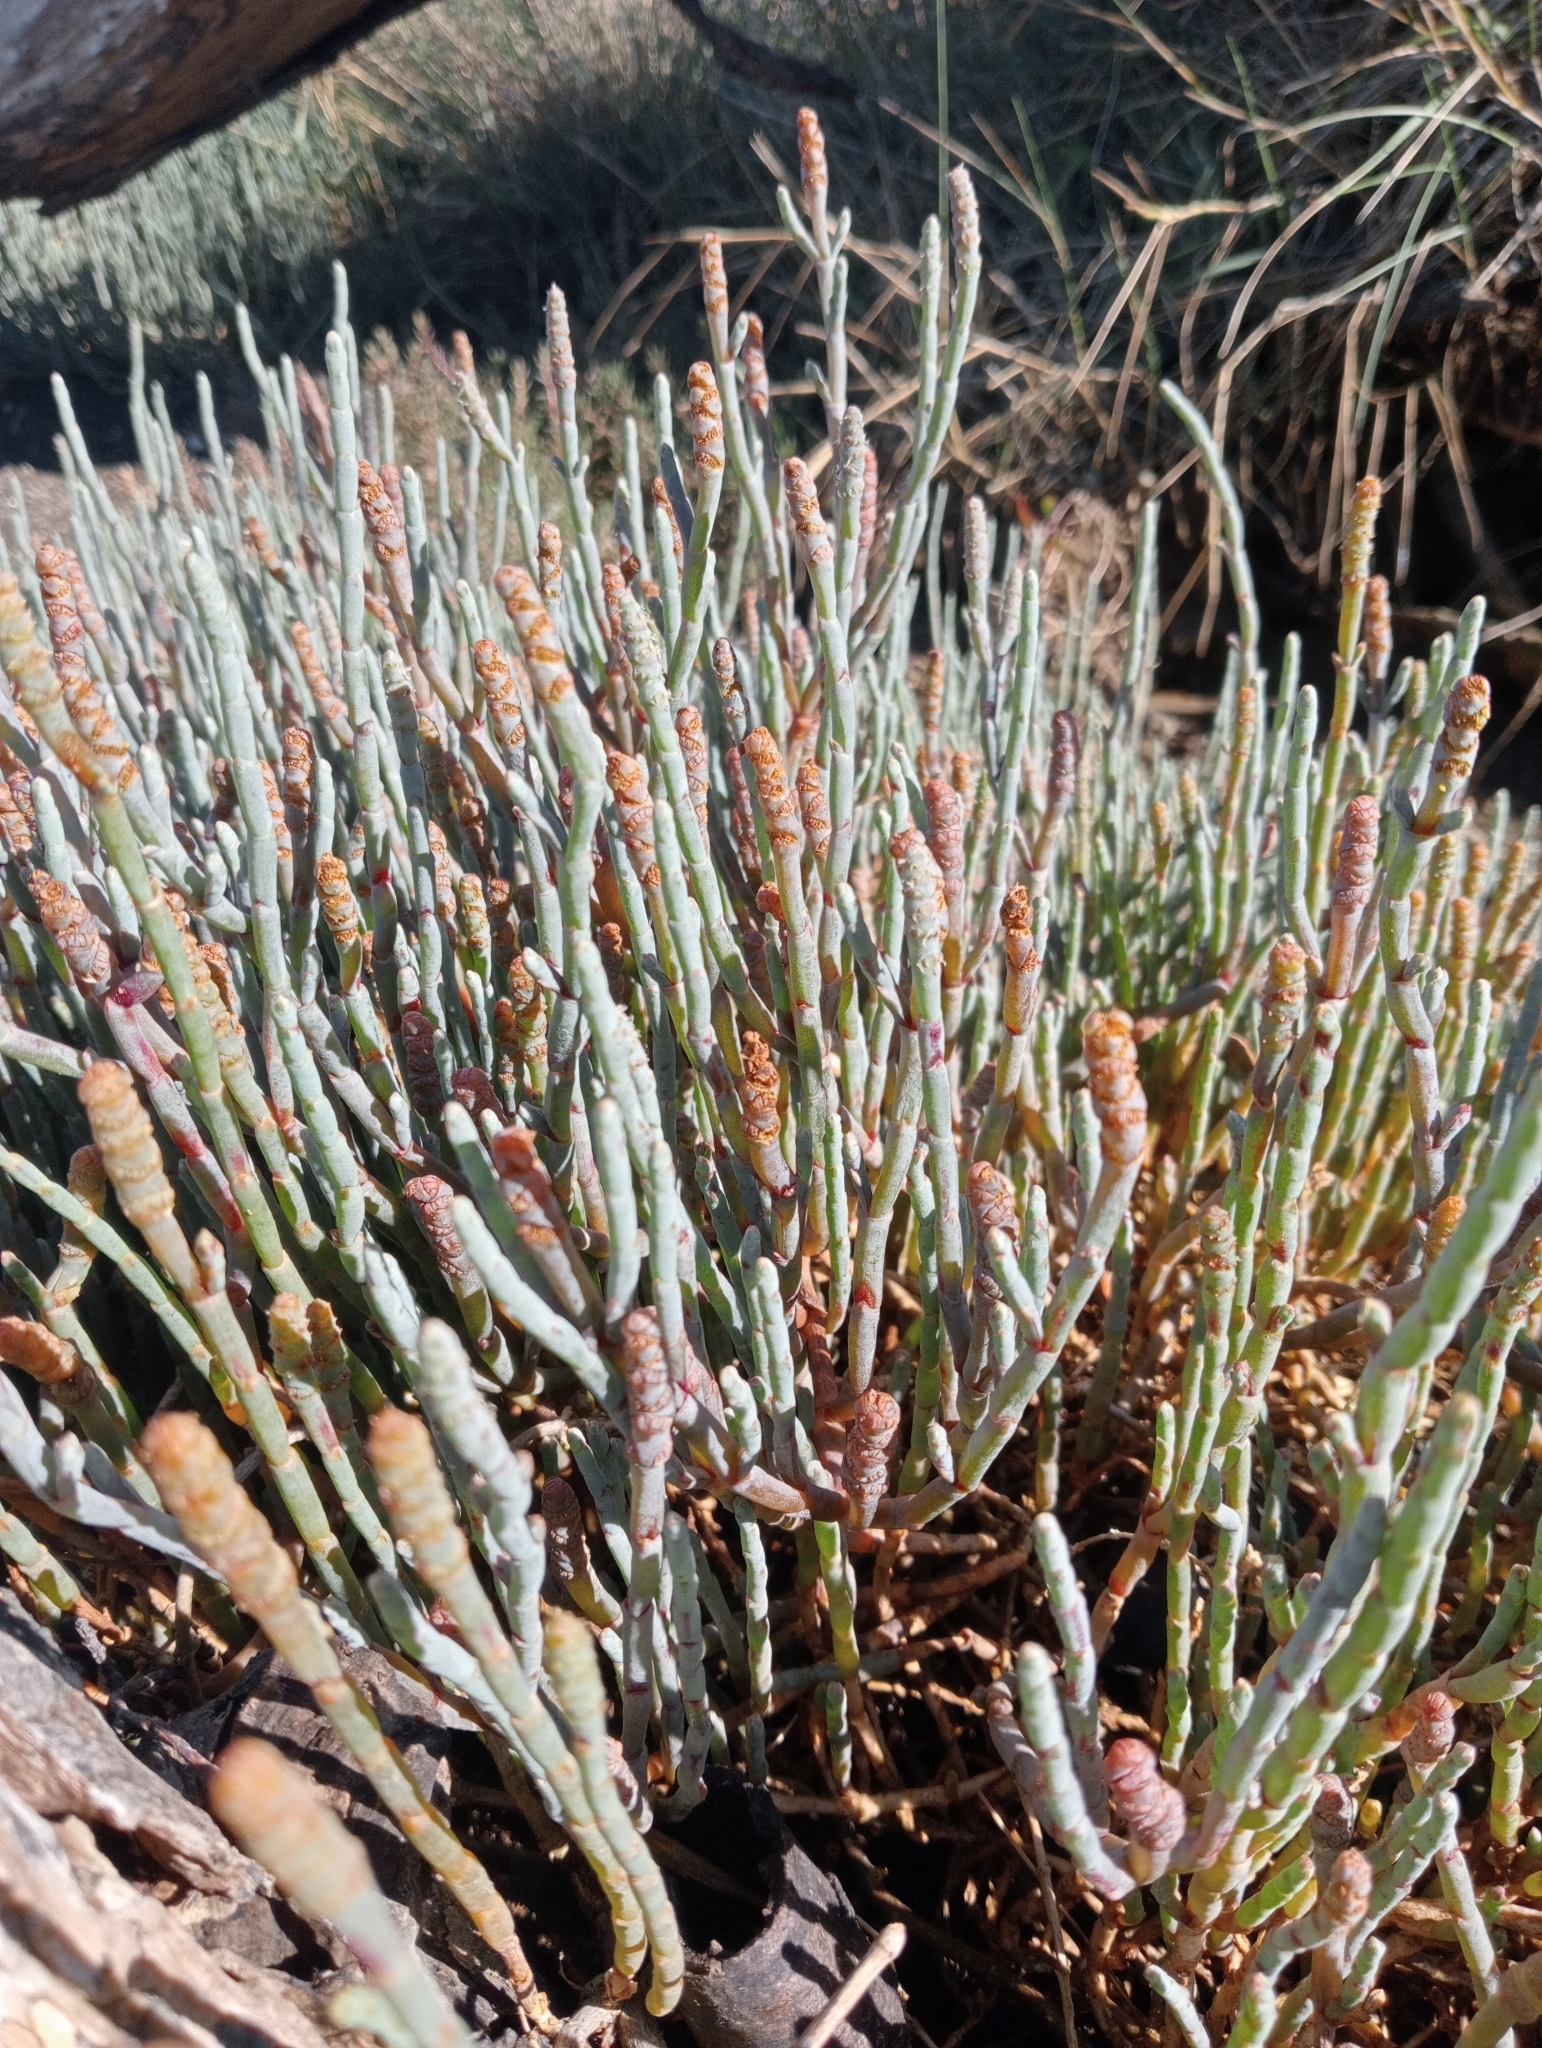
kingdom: Plantae
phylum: Tracheophyta
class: Magnoliopsida
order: Caryophyllales
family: Amaranthaceae
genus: Salicornia
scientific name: Salicornia quinqueflora
